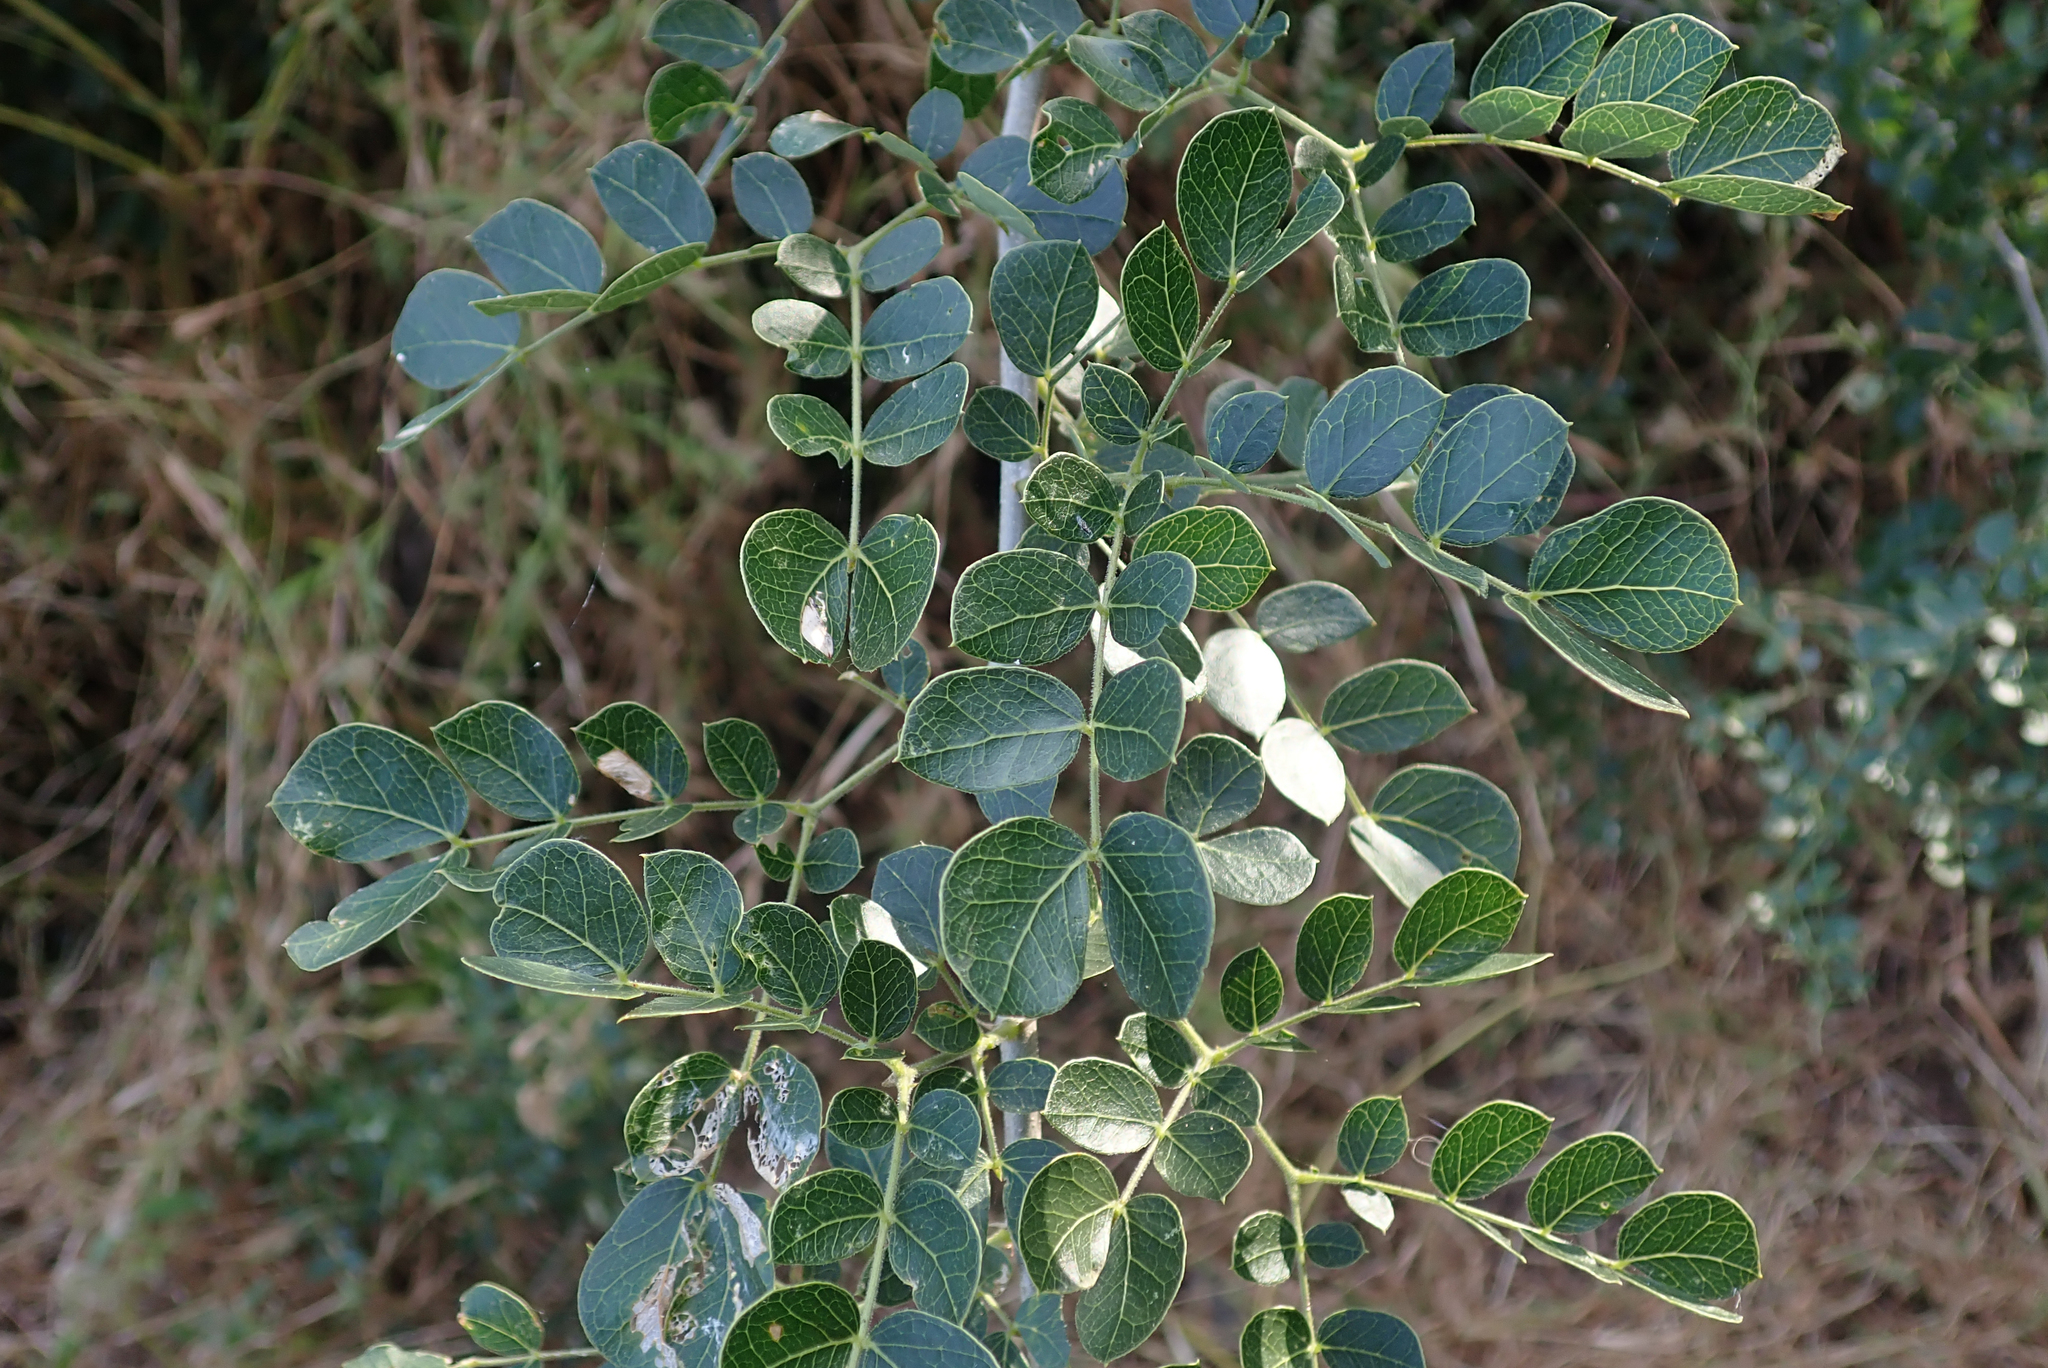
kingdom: Plantae
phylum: Tracheophyta
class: Magnoliopsida
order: Fabales
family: Fabaceae
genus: Albizia
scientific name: Albizia versicolor
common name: Poisonpod
